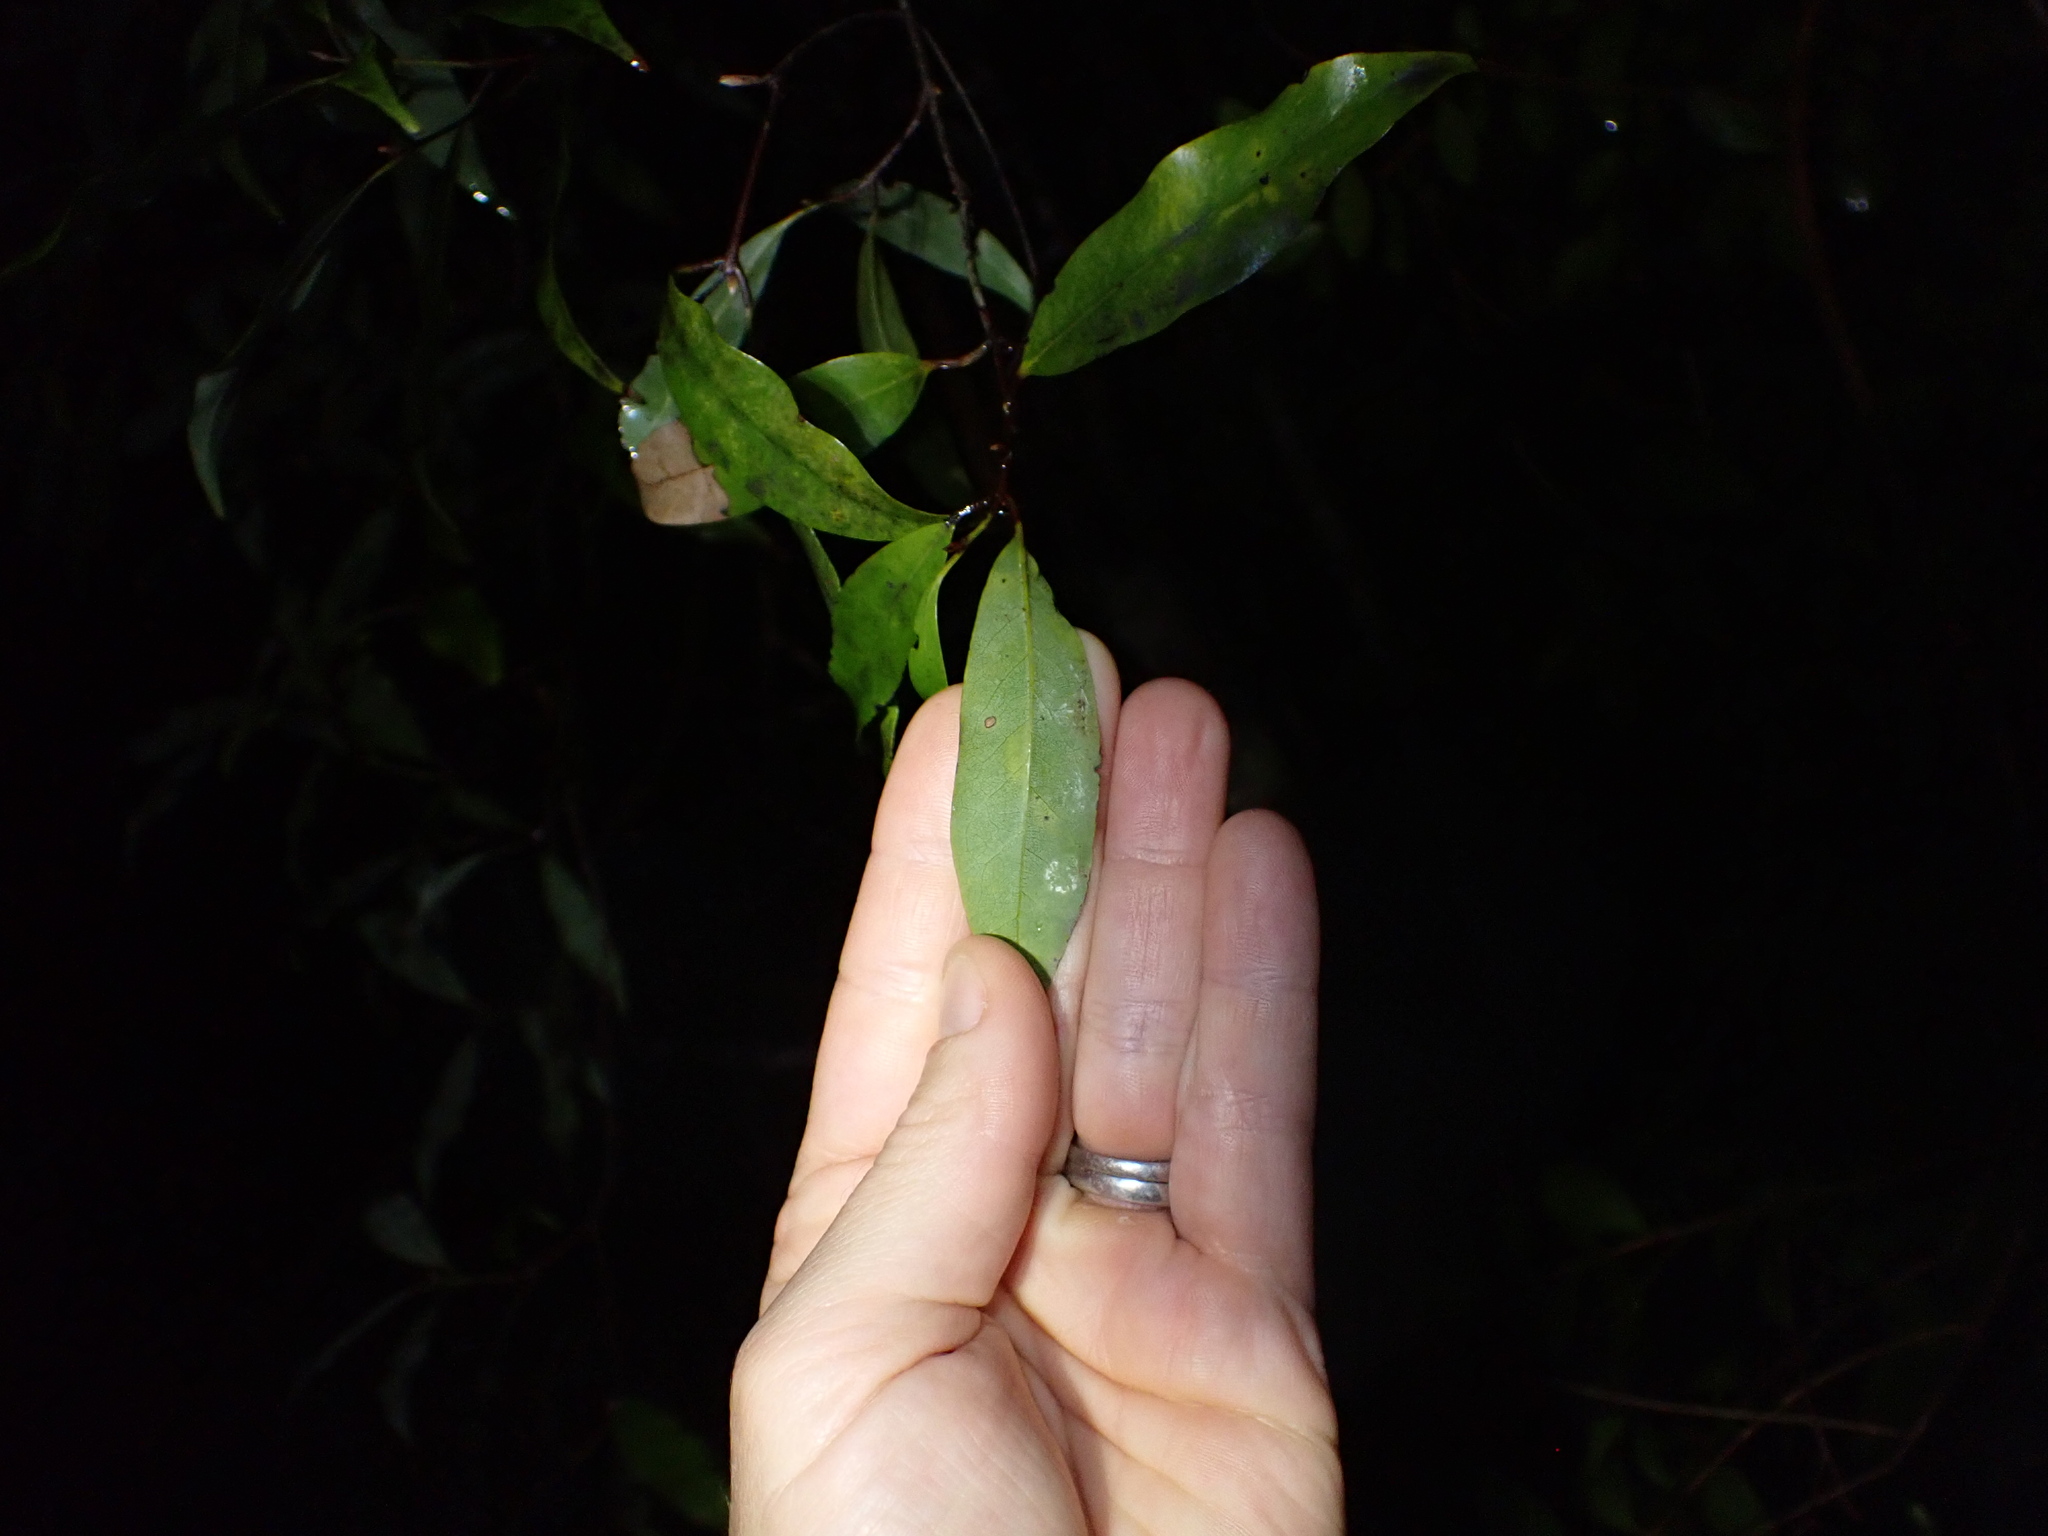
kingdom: Plantae
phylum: Tracheophyta
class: Magnoliopsida
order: Laurales
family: Lauraceae
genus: Beilschmiedia
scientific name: Beilschmiedia tawa
